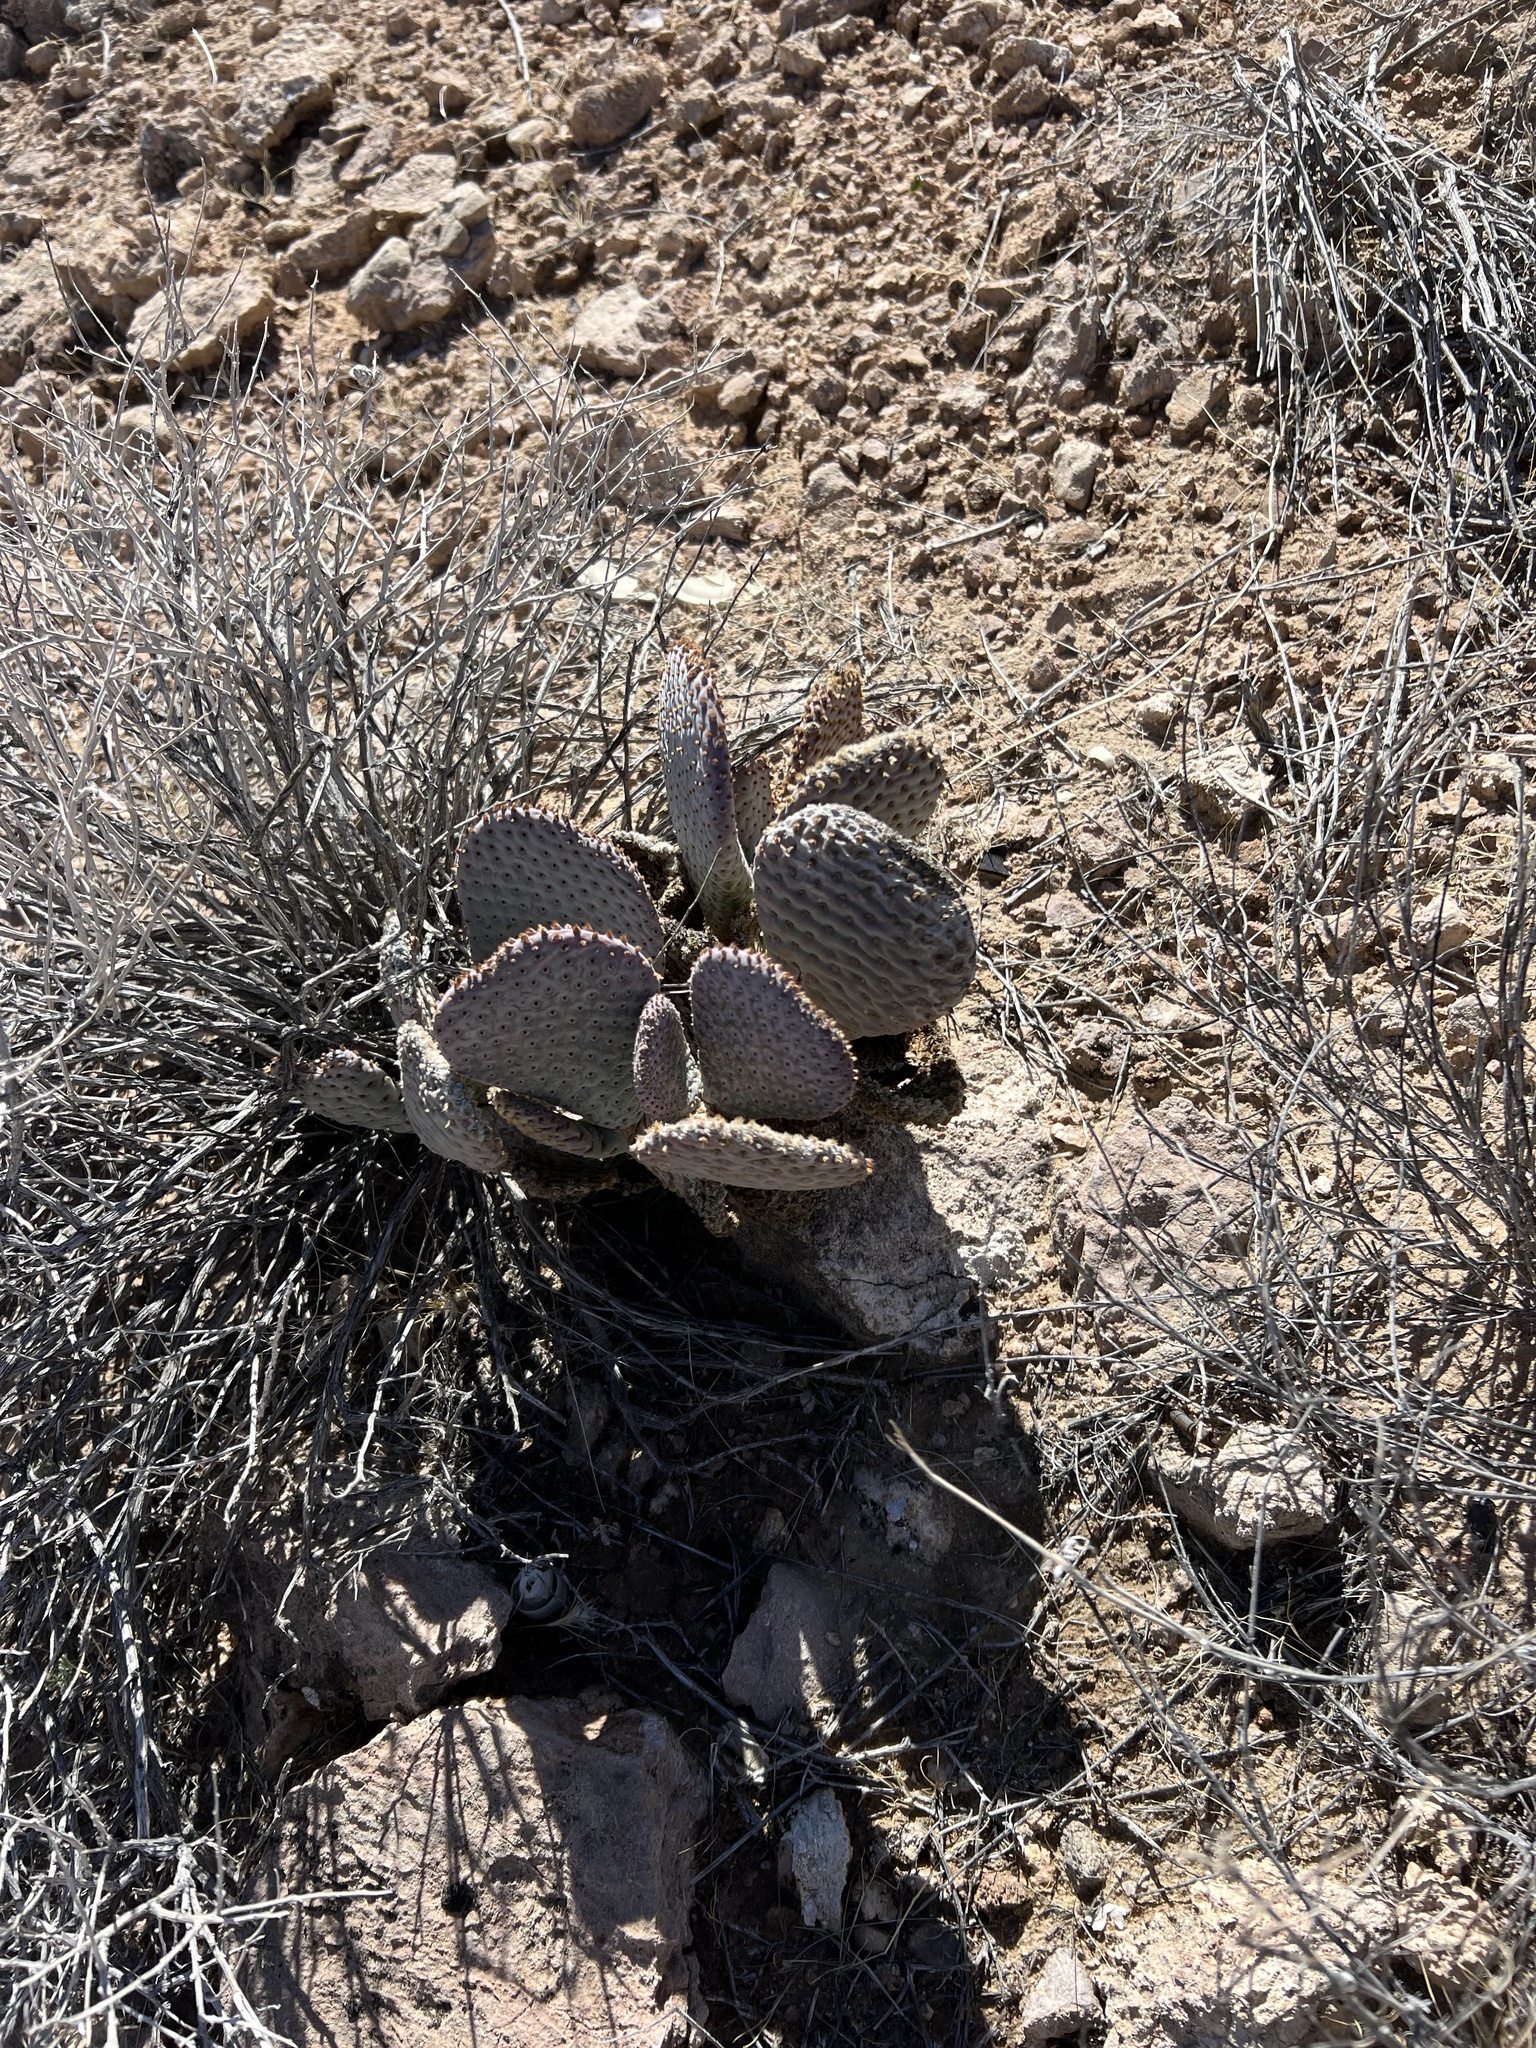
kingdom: Plantae
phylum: Tracheophyta
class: Magnoliopsida
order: Caryophyllales
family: Cactaceae
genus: Opuntia
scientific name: Opuntia basilaris
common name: Beavertail prickly-pear
